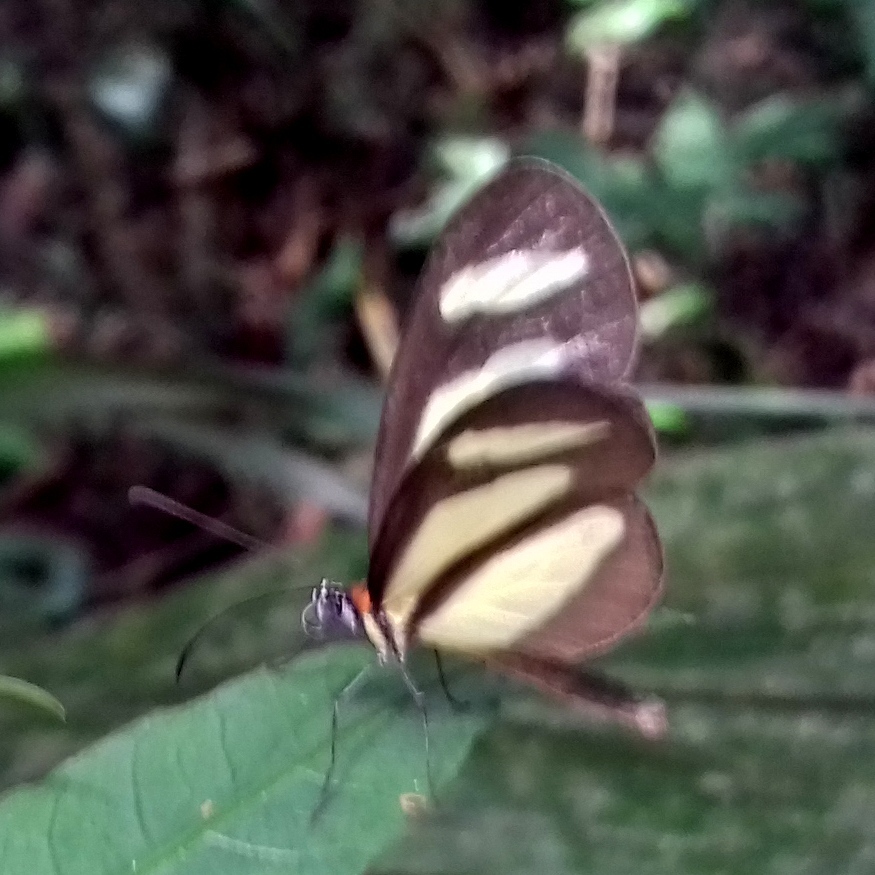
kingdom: Animalia
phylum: Arthropoda
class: Insecta
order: Lepidoptera
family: Nymphalidae
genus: Aeria
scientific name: Aeria olena
